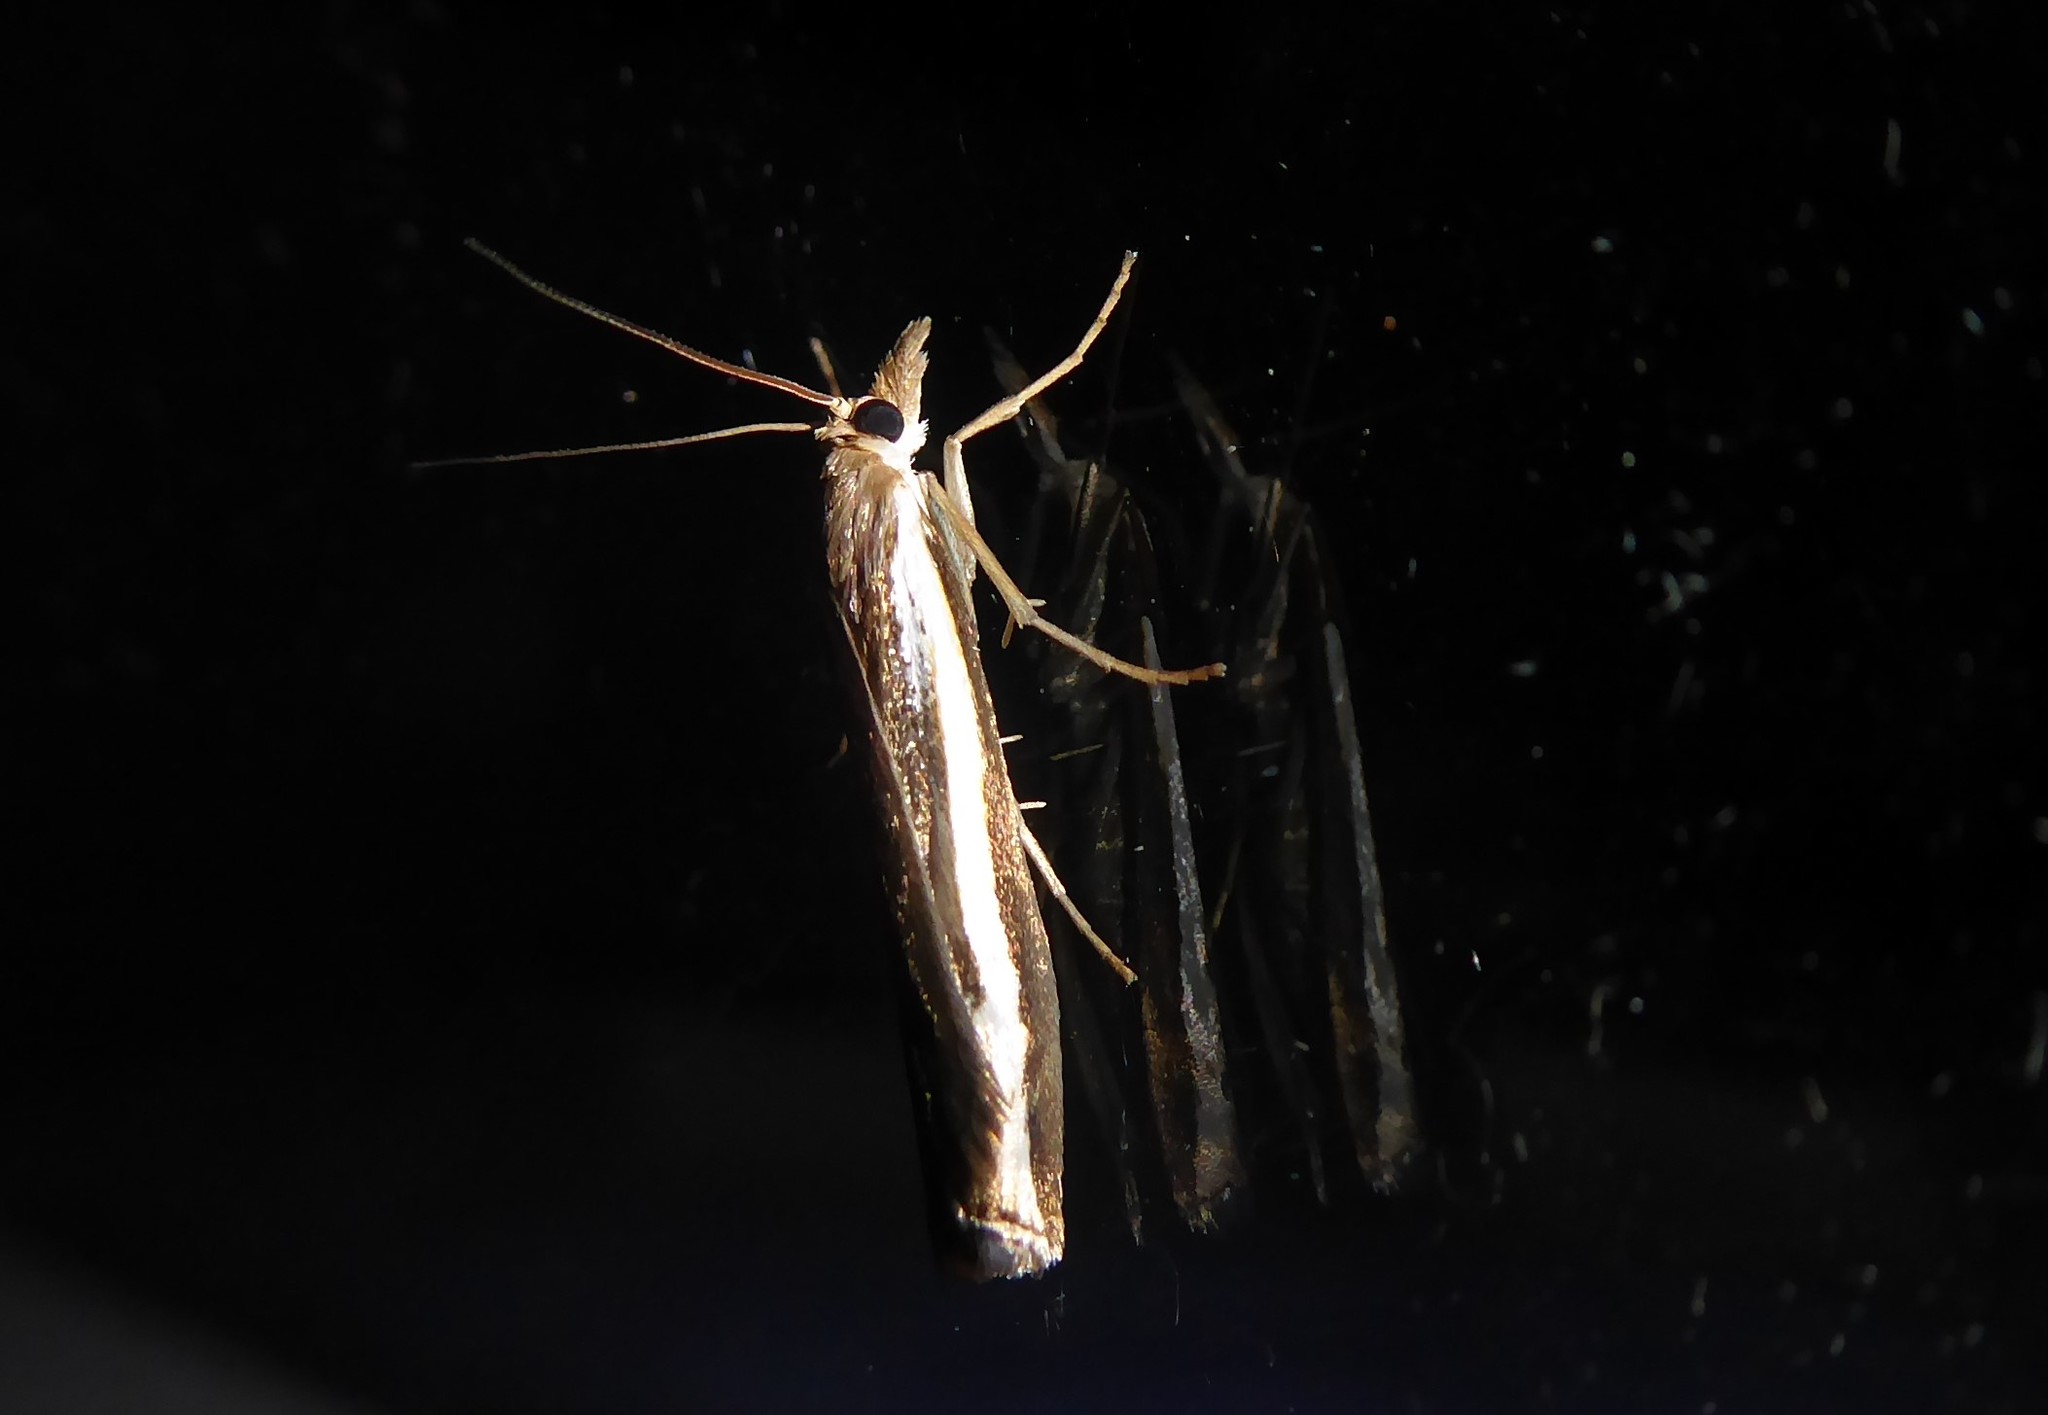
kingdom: Animalia
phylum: Arthropoda
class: Insecta
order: Lepidoptera
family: Crambidae
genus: Orocrambus
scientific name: Orocrambus flexuosellus
